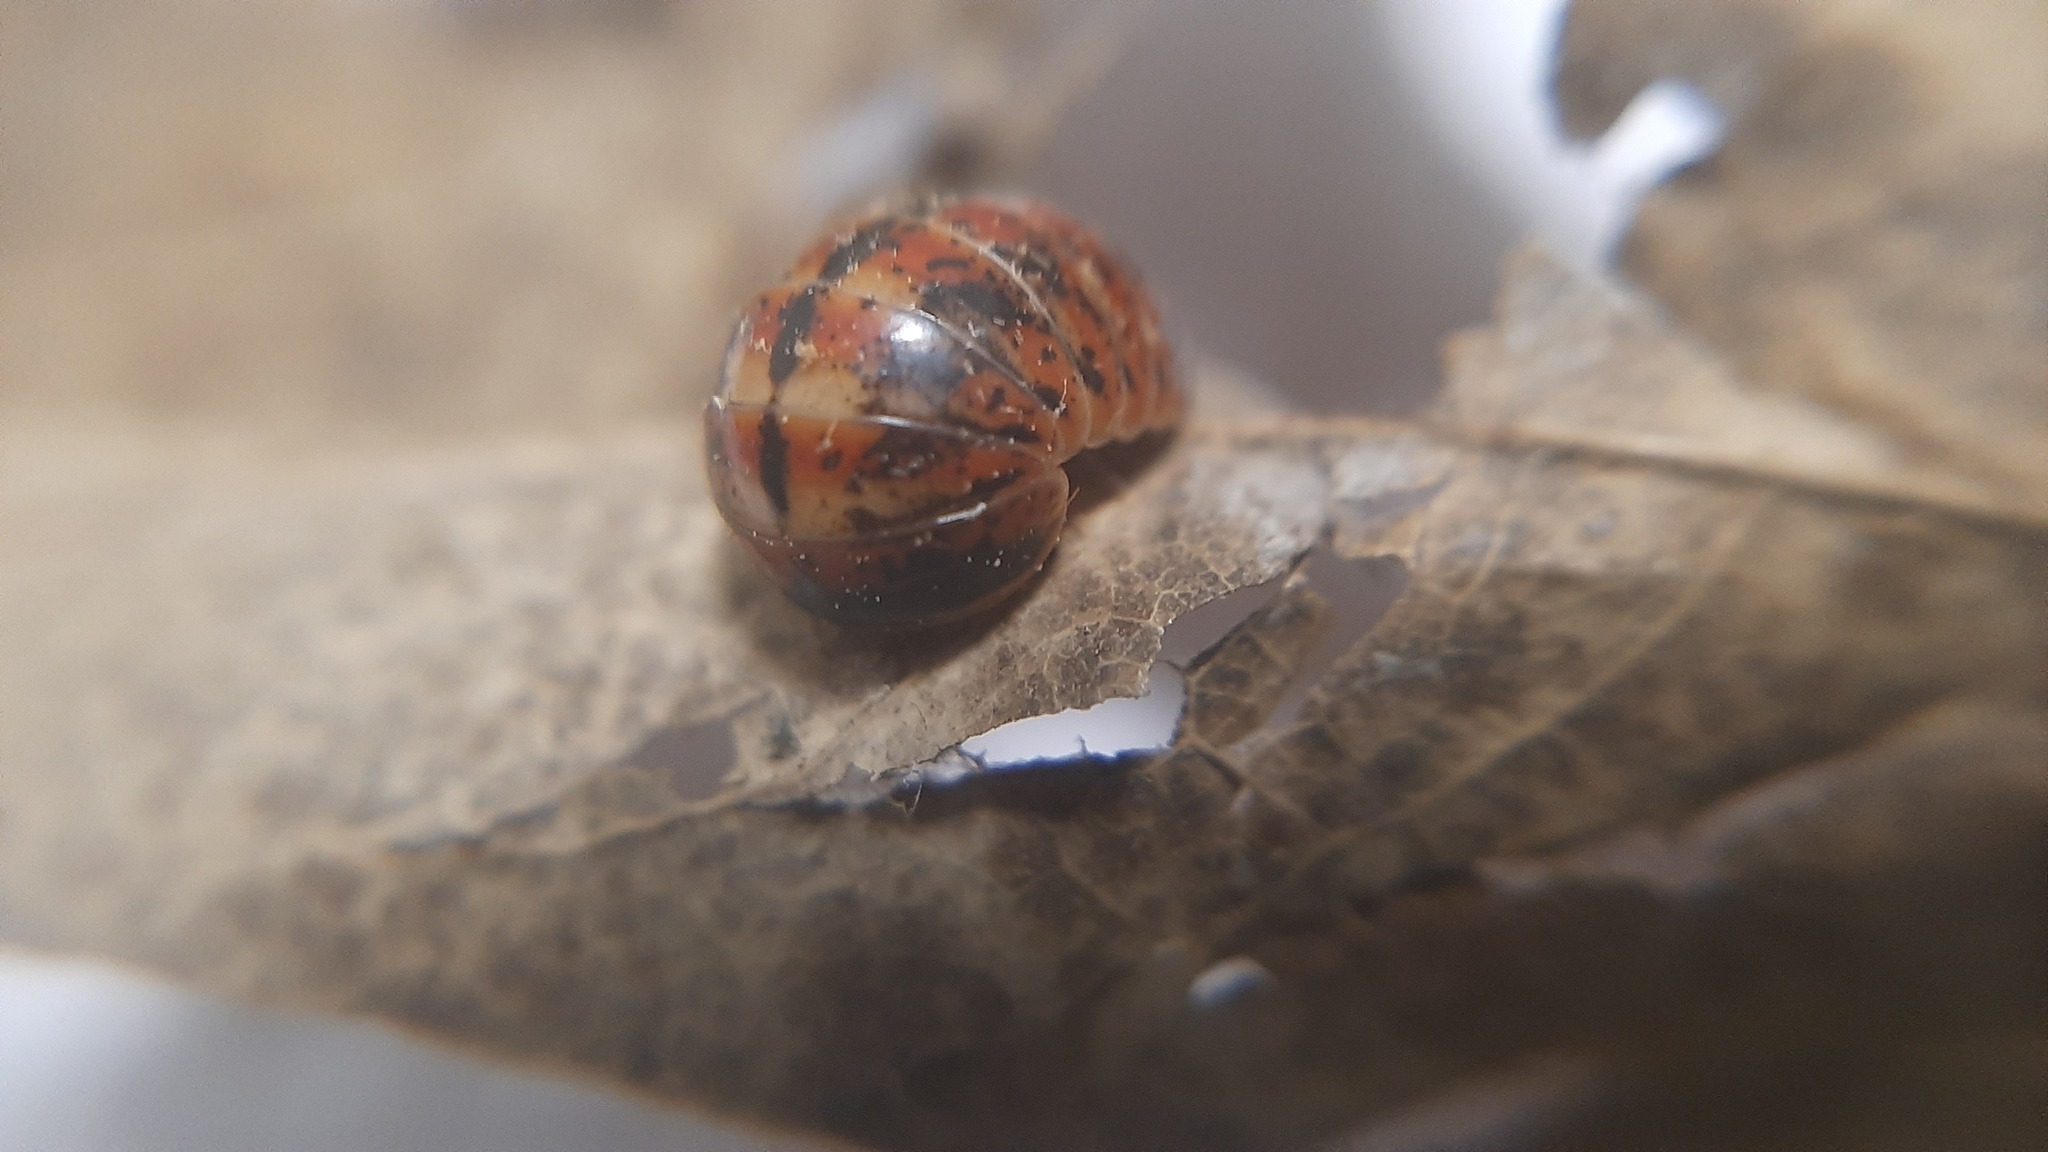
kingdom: Animalia
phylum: Arthropoda
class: Diplopoda
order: Glomerida
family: Glomeridae
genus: Glomeris
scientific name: Glomeris klugii
